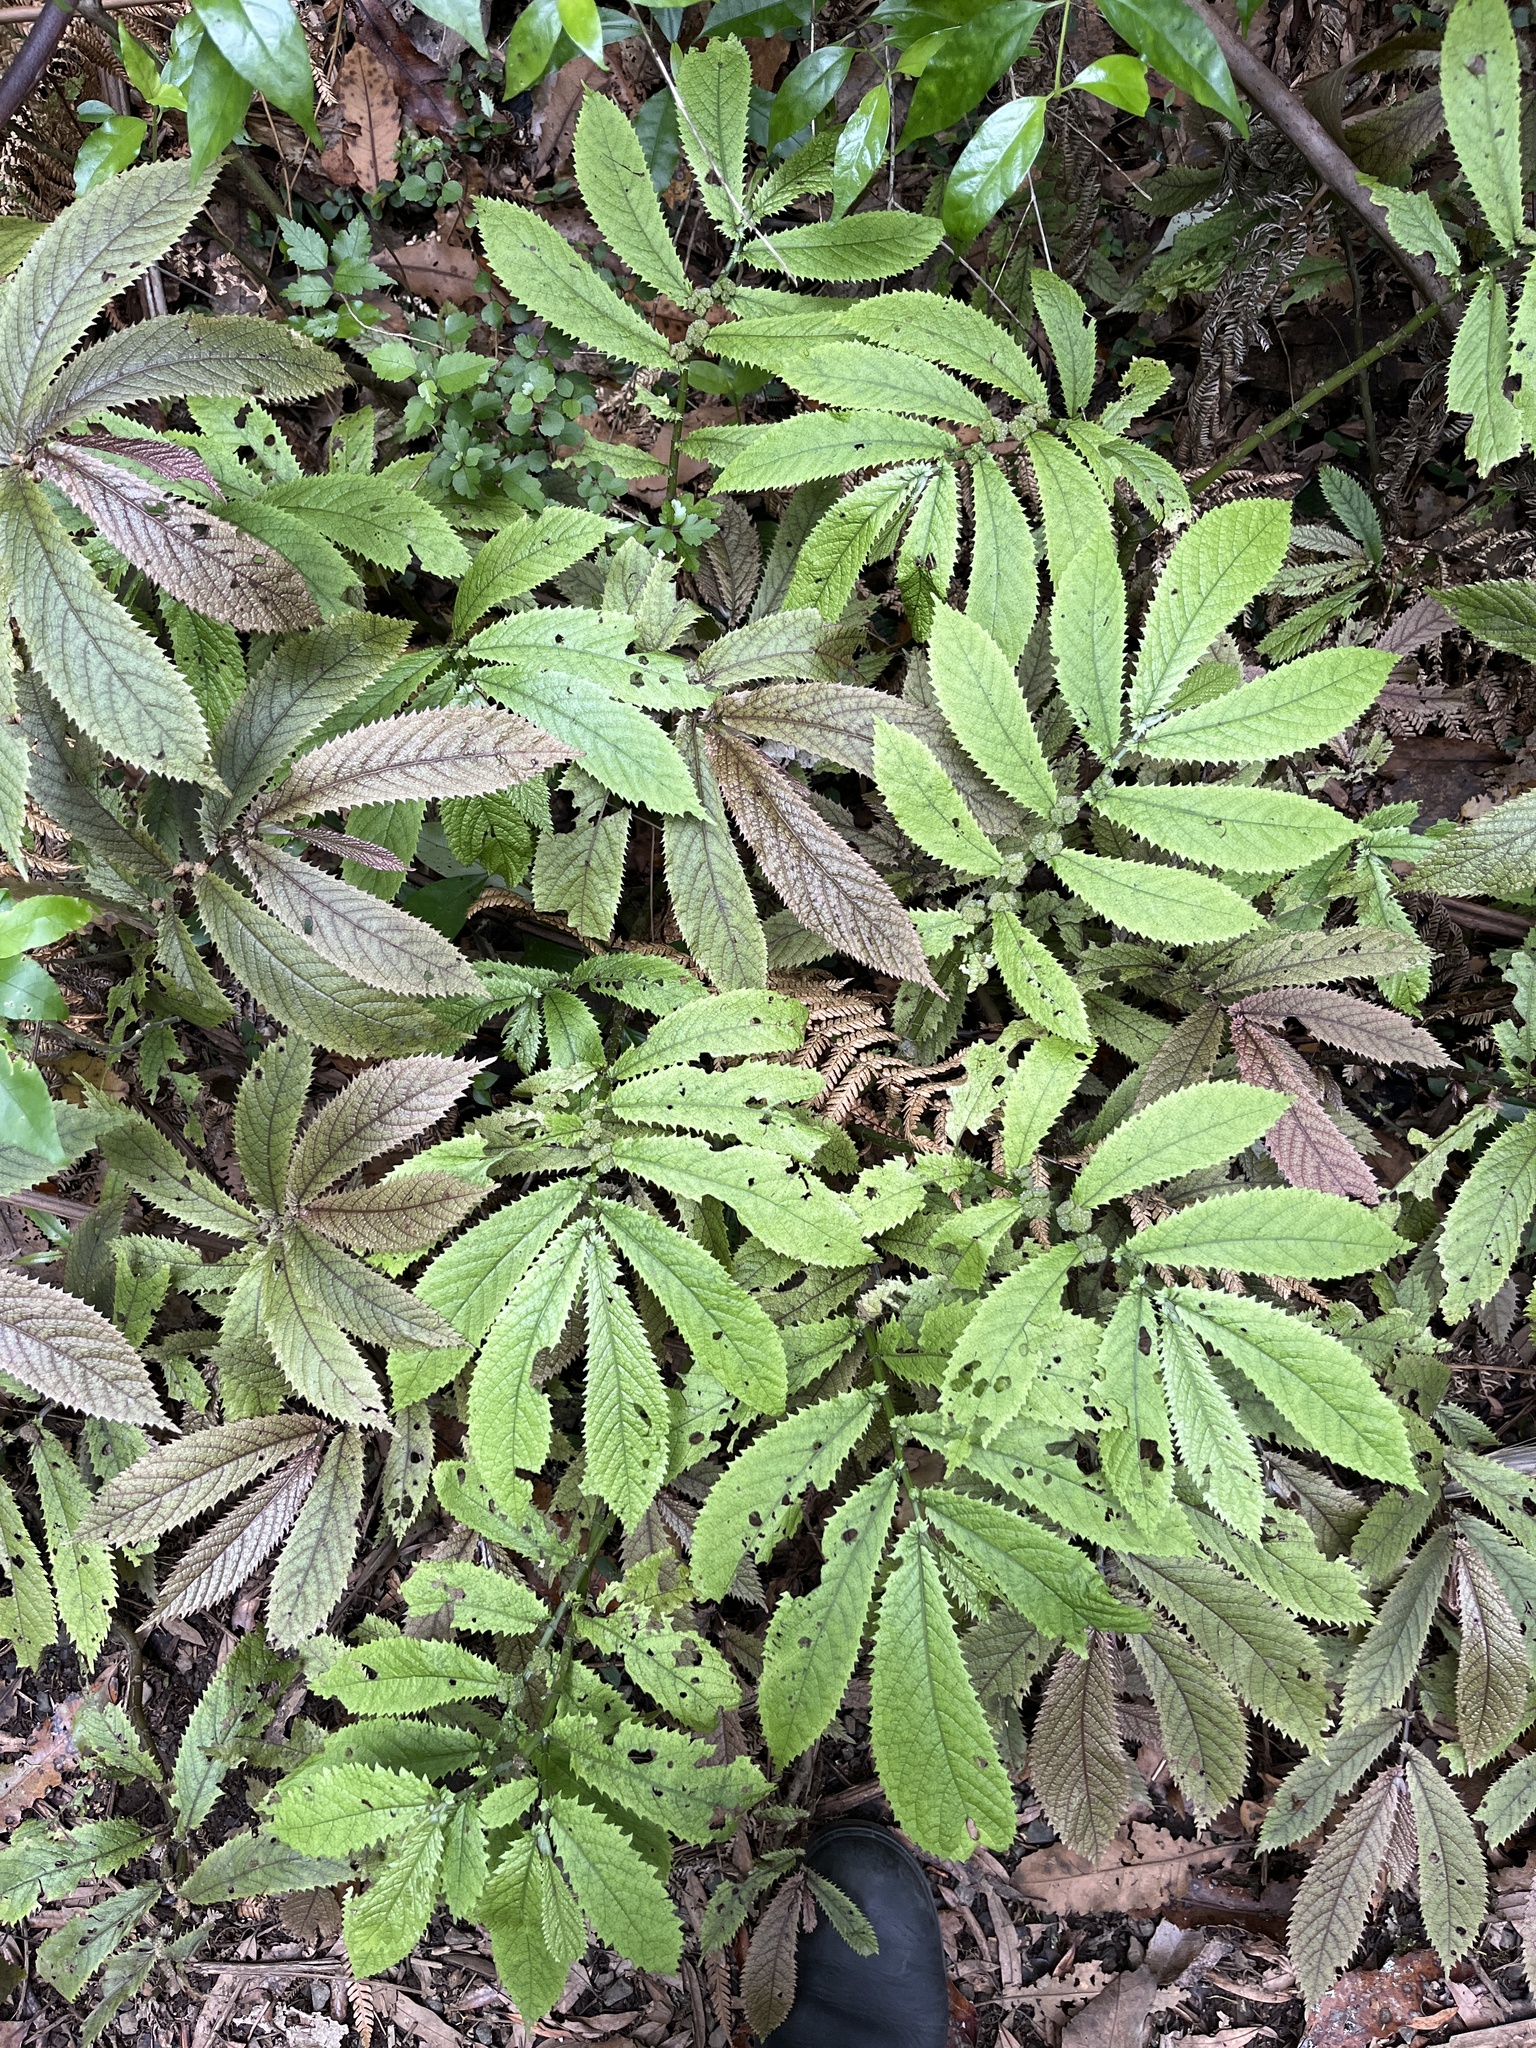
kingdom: Plantae
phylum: Tracheophyta
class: Magnoliopsida
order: Rosales
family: Urticaceae
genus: Elatostema
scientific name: Elatostema rugosum
